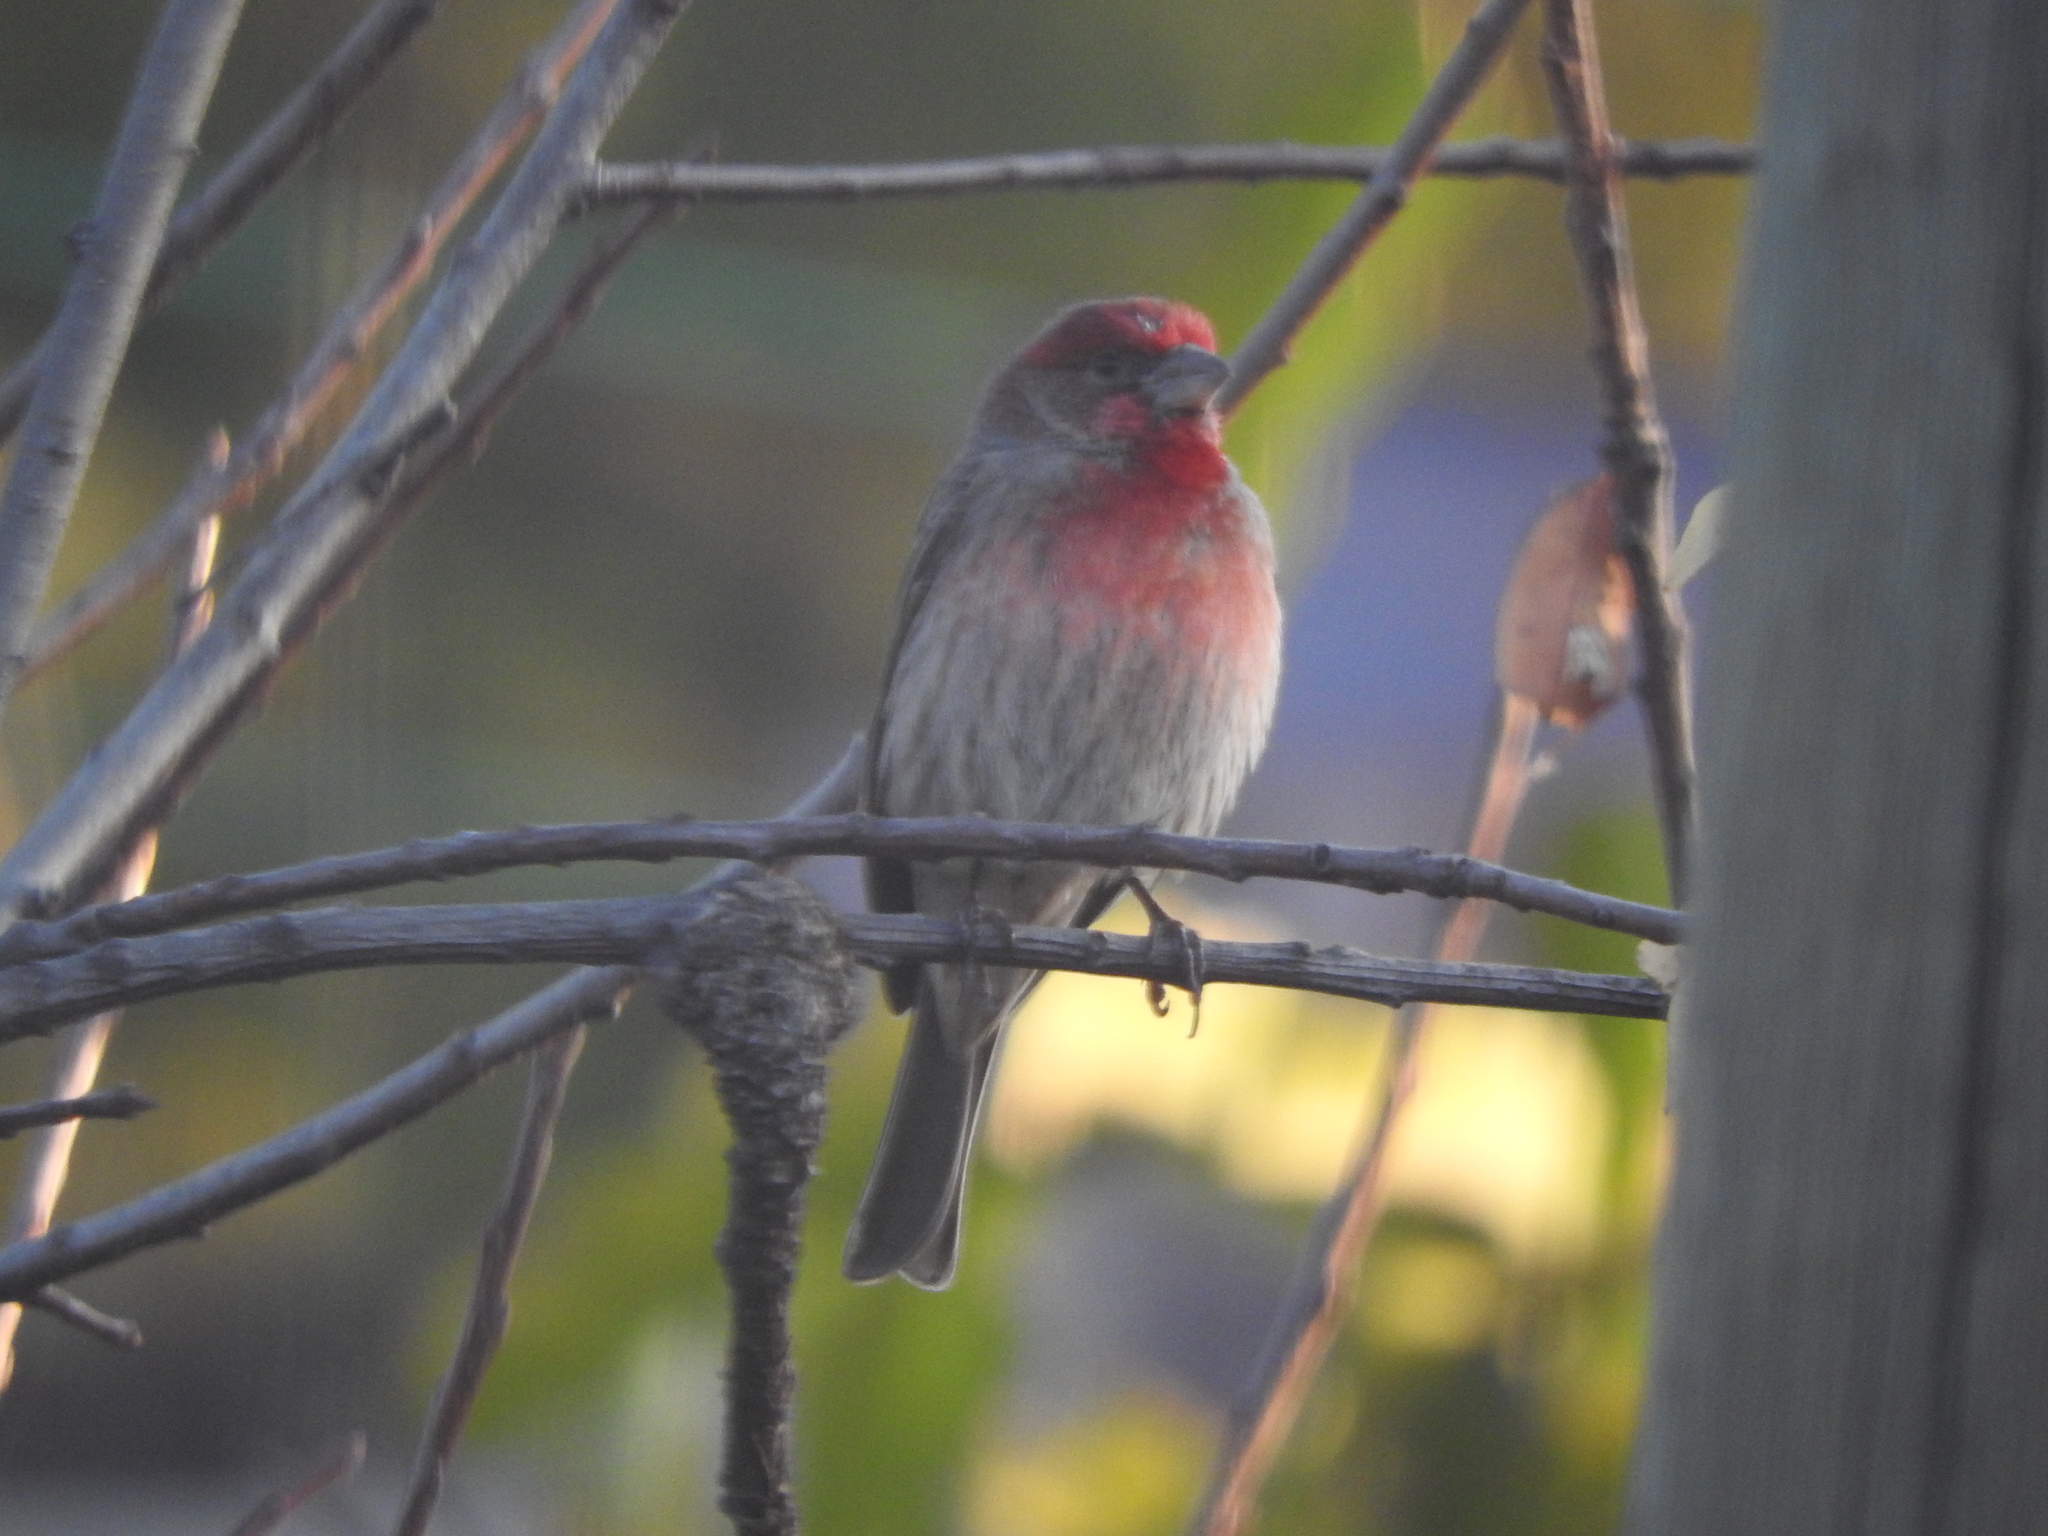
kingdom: Animalia
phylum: Chordata
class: Aves
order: Passeriformes
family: Fringillidae
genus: Haemorhous
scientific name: Haemorhous mexicanus
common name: House finch
